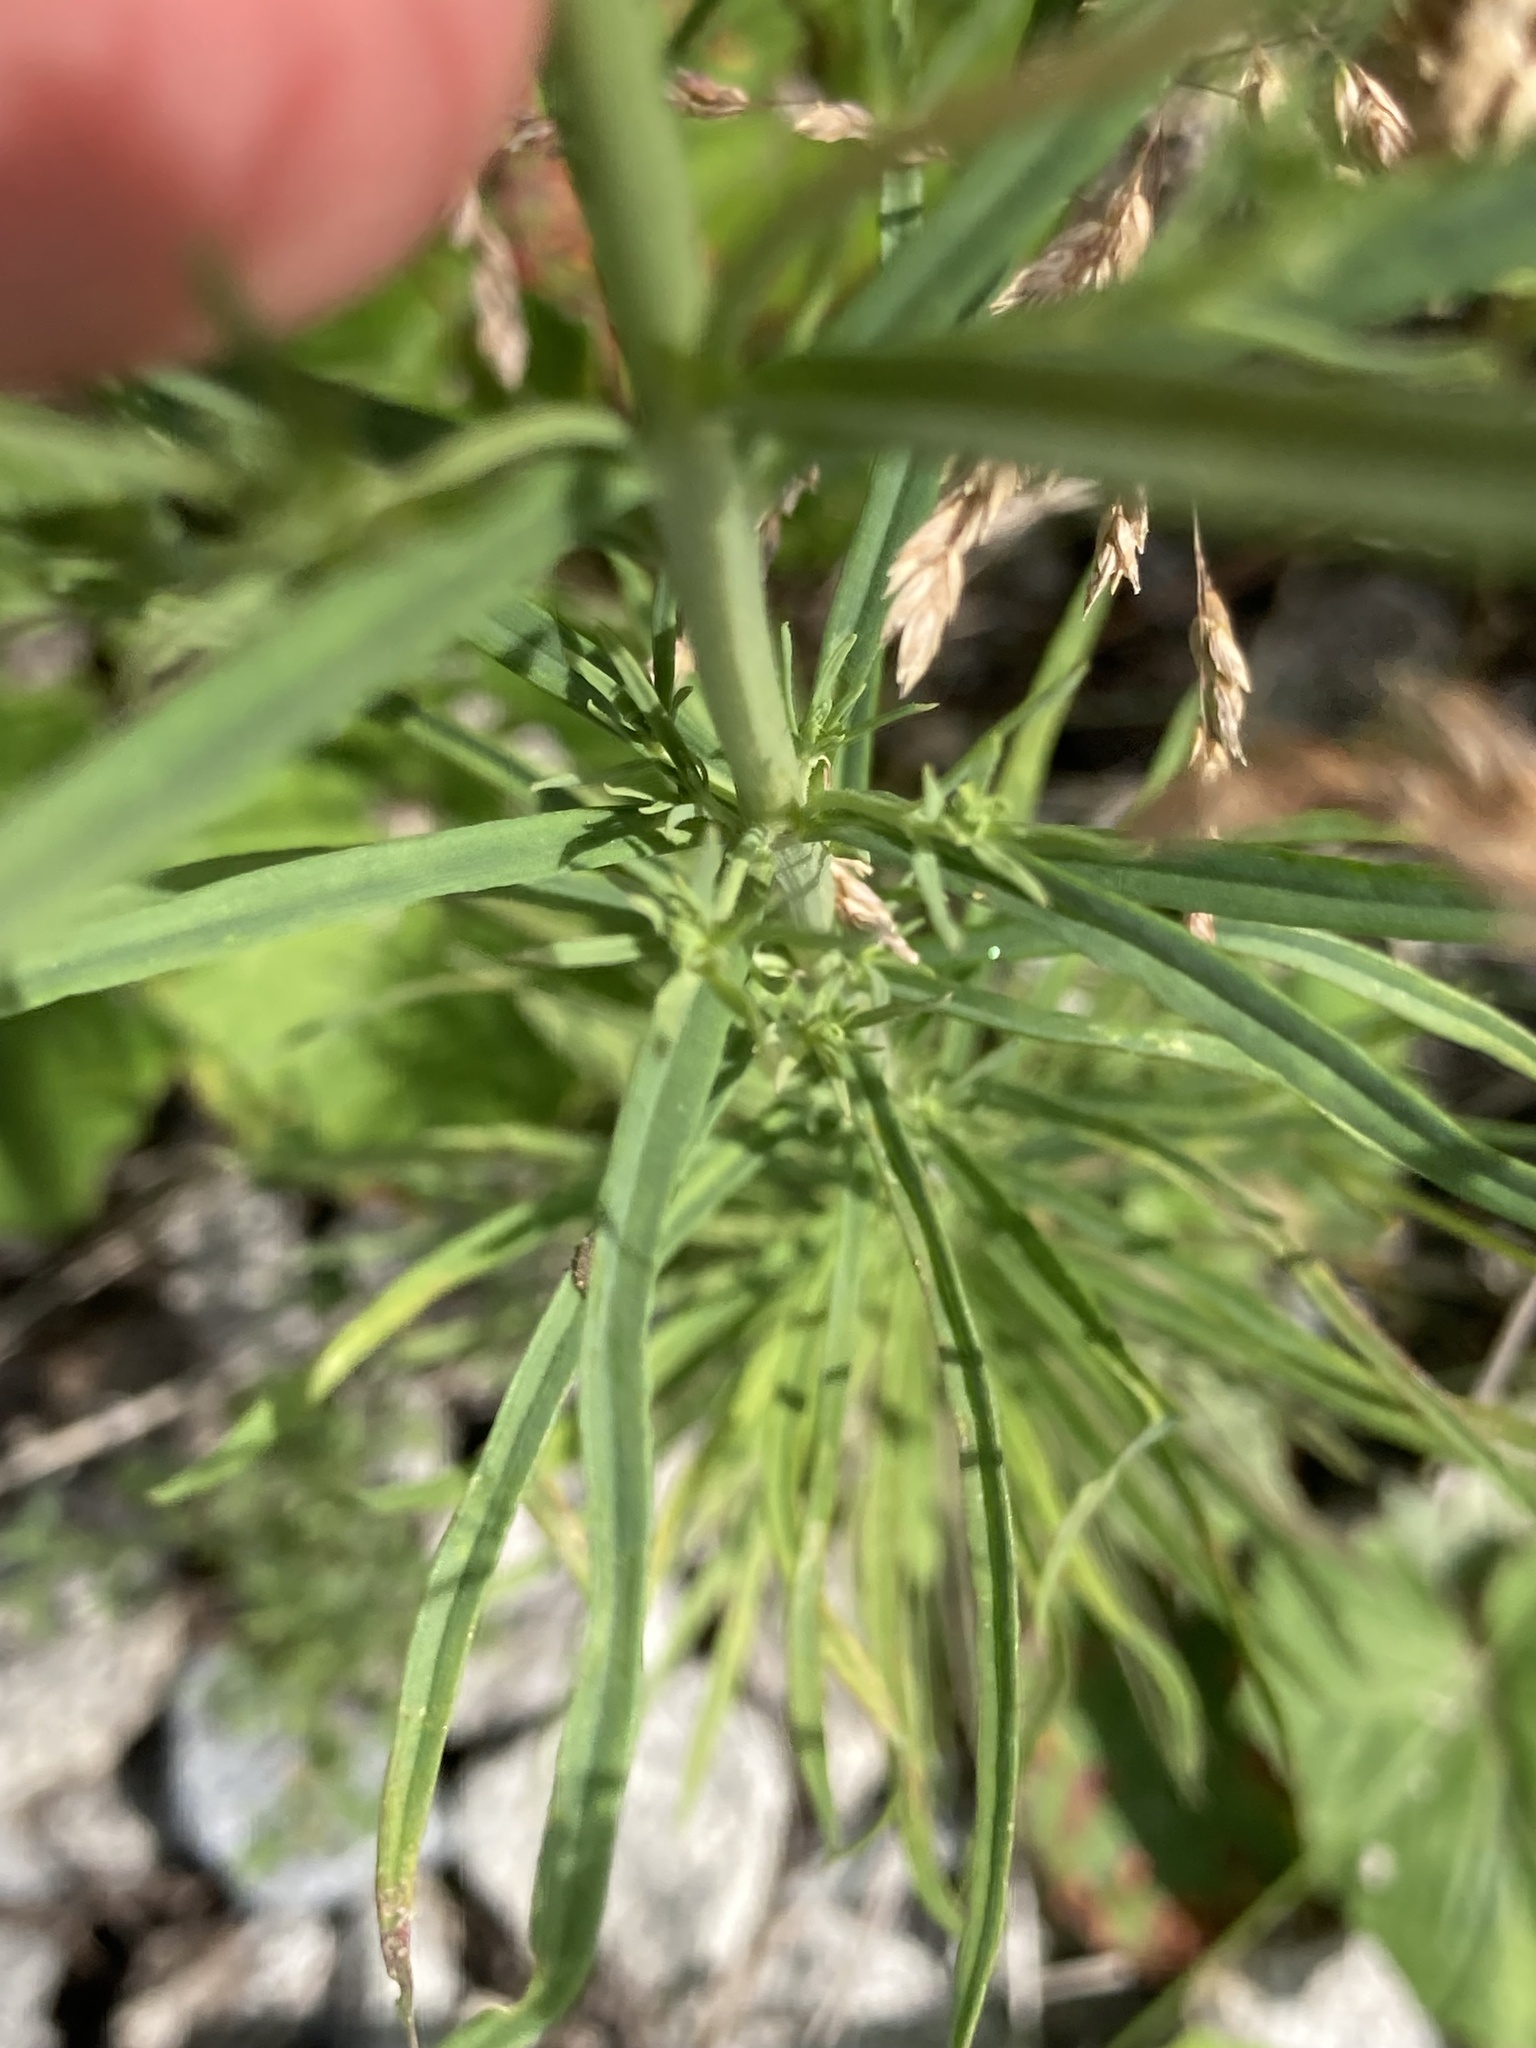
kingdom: Plantae
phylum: Tracheophyta
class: Magnoliopsida
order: Lamiales
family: Plantaginaceae
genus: Linaria
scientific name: Linaria vulgaris
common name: Butter and eggs
